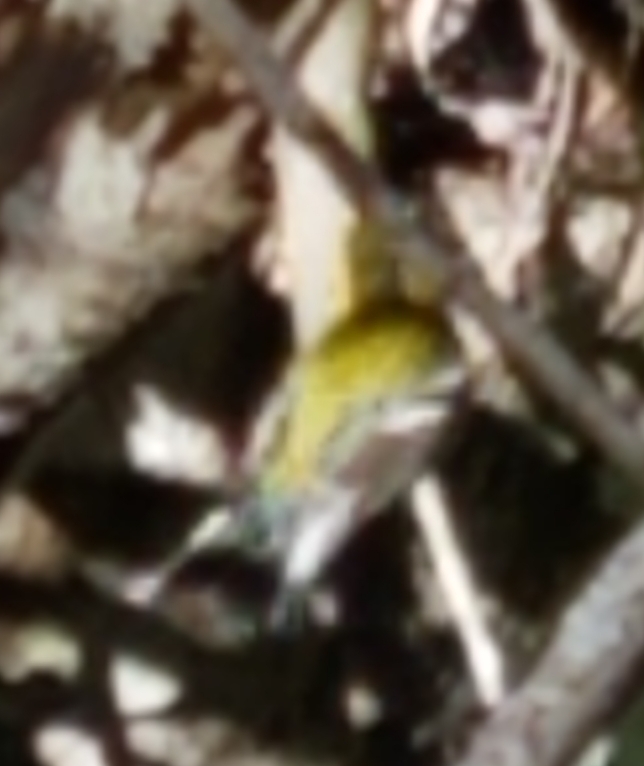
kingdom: Animalia
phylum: Chordata
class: Aves
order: Passeriformes
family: Parulidae
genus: Setophaga
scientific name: Setophaga townsendi
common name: Townsend's warbler
